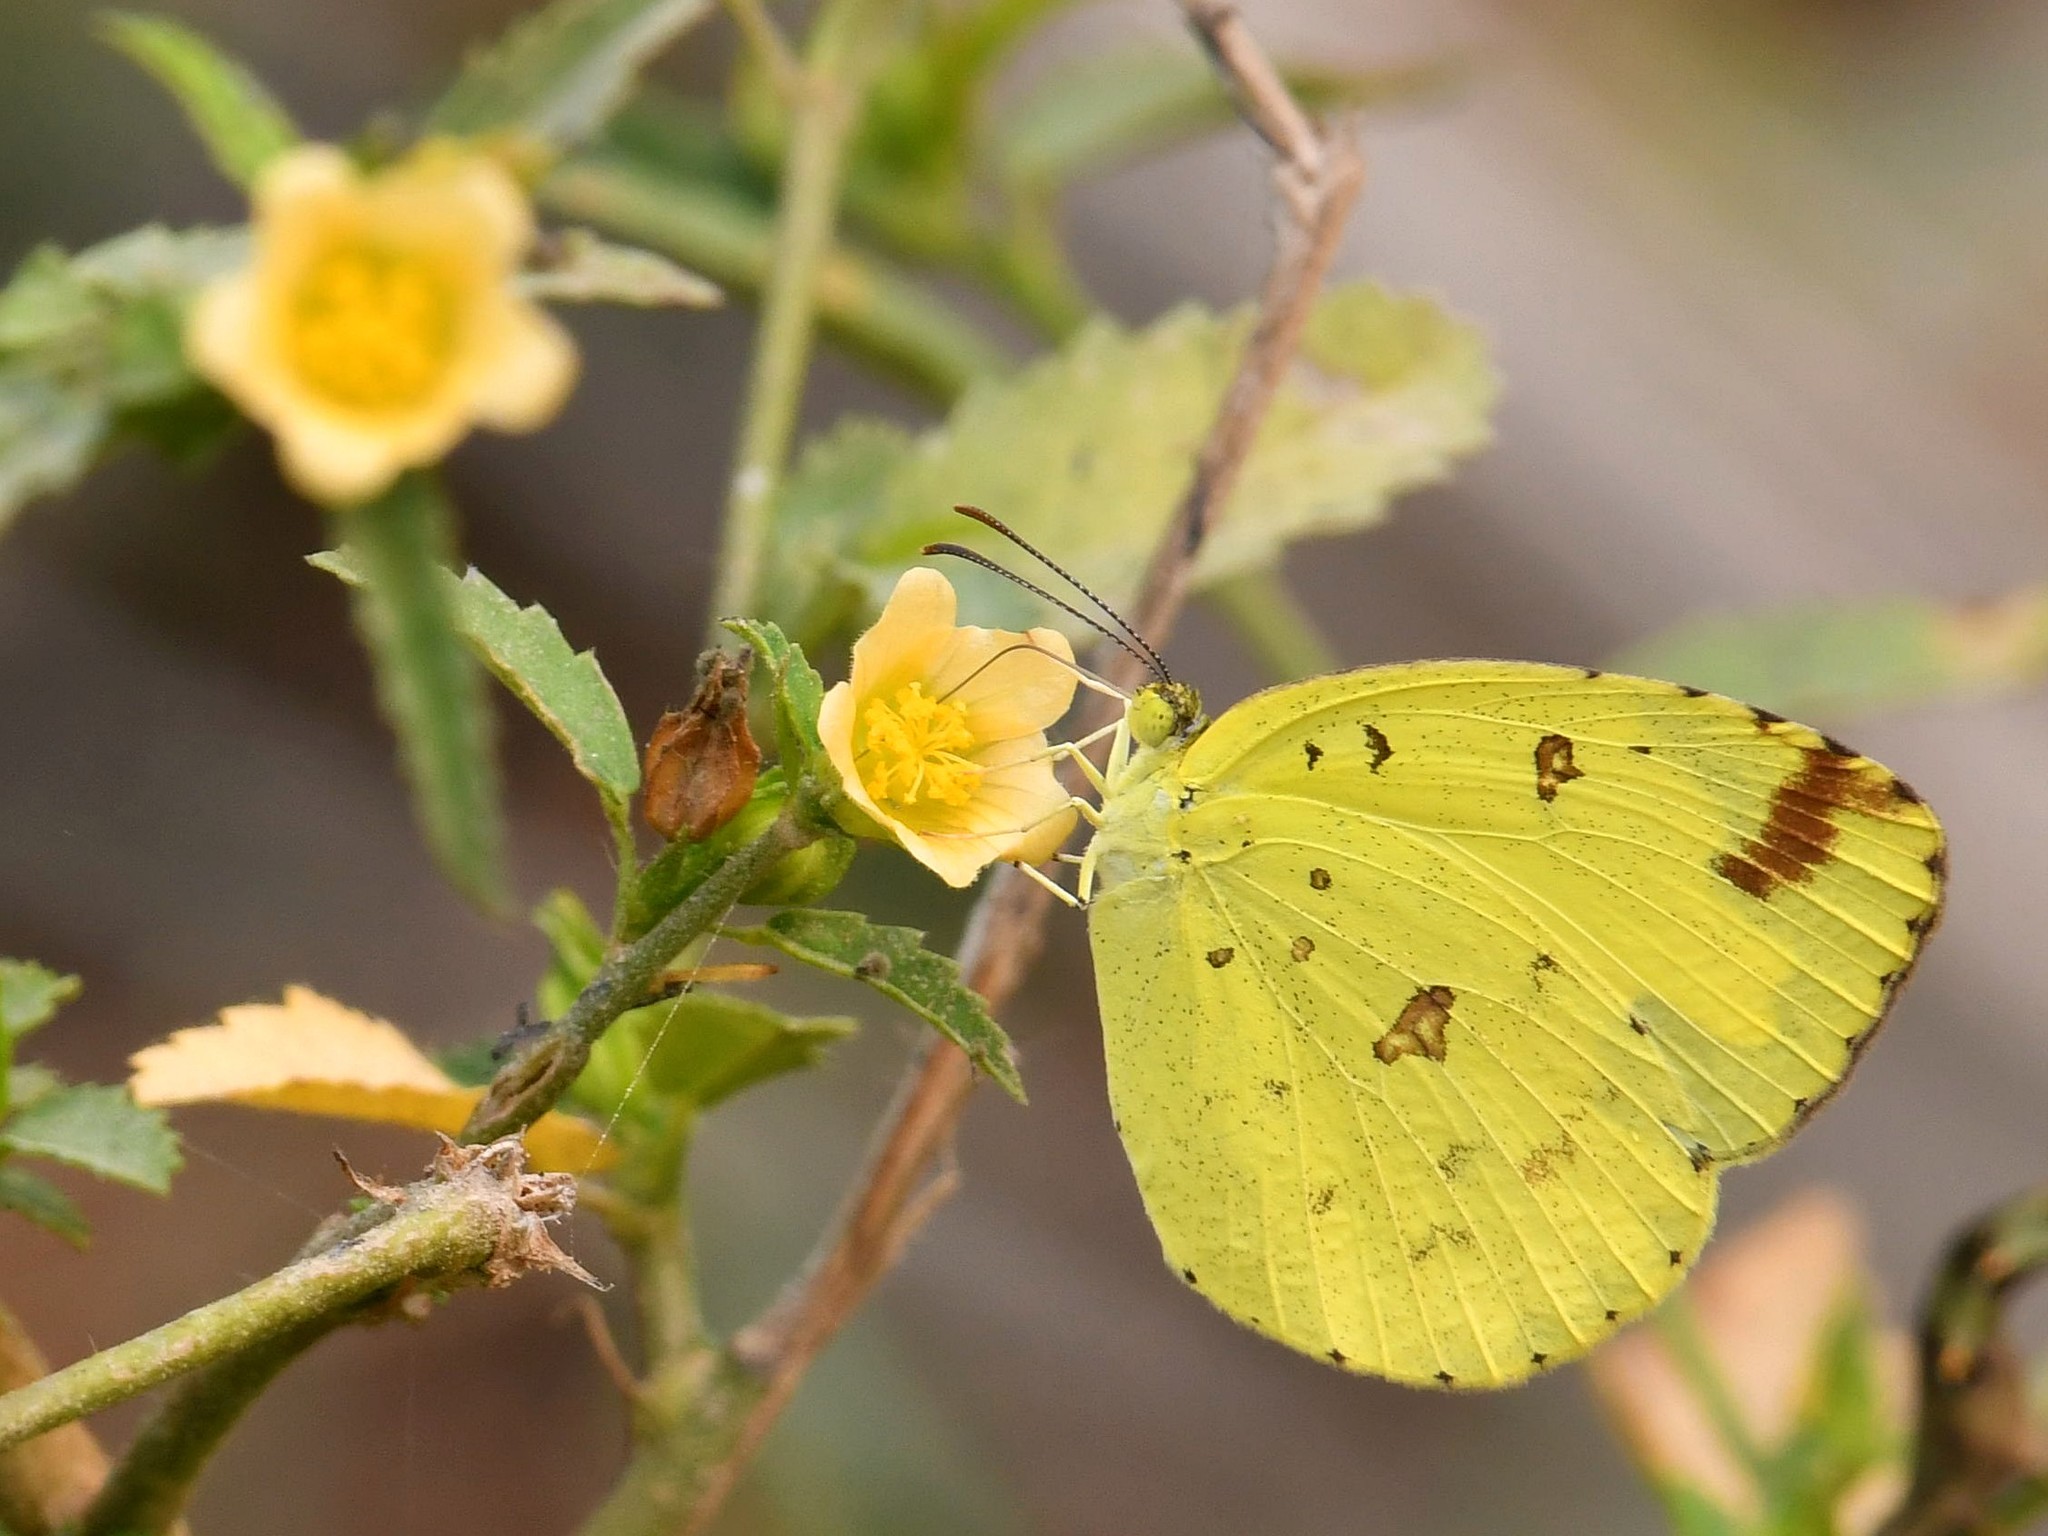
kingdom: Animalia
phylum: Arthropoda
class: Insecta
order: Lepidoptera
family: Pieridae
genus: Eurema
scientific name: Eurema hecabe
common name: Pale grass yellow
